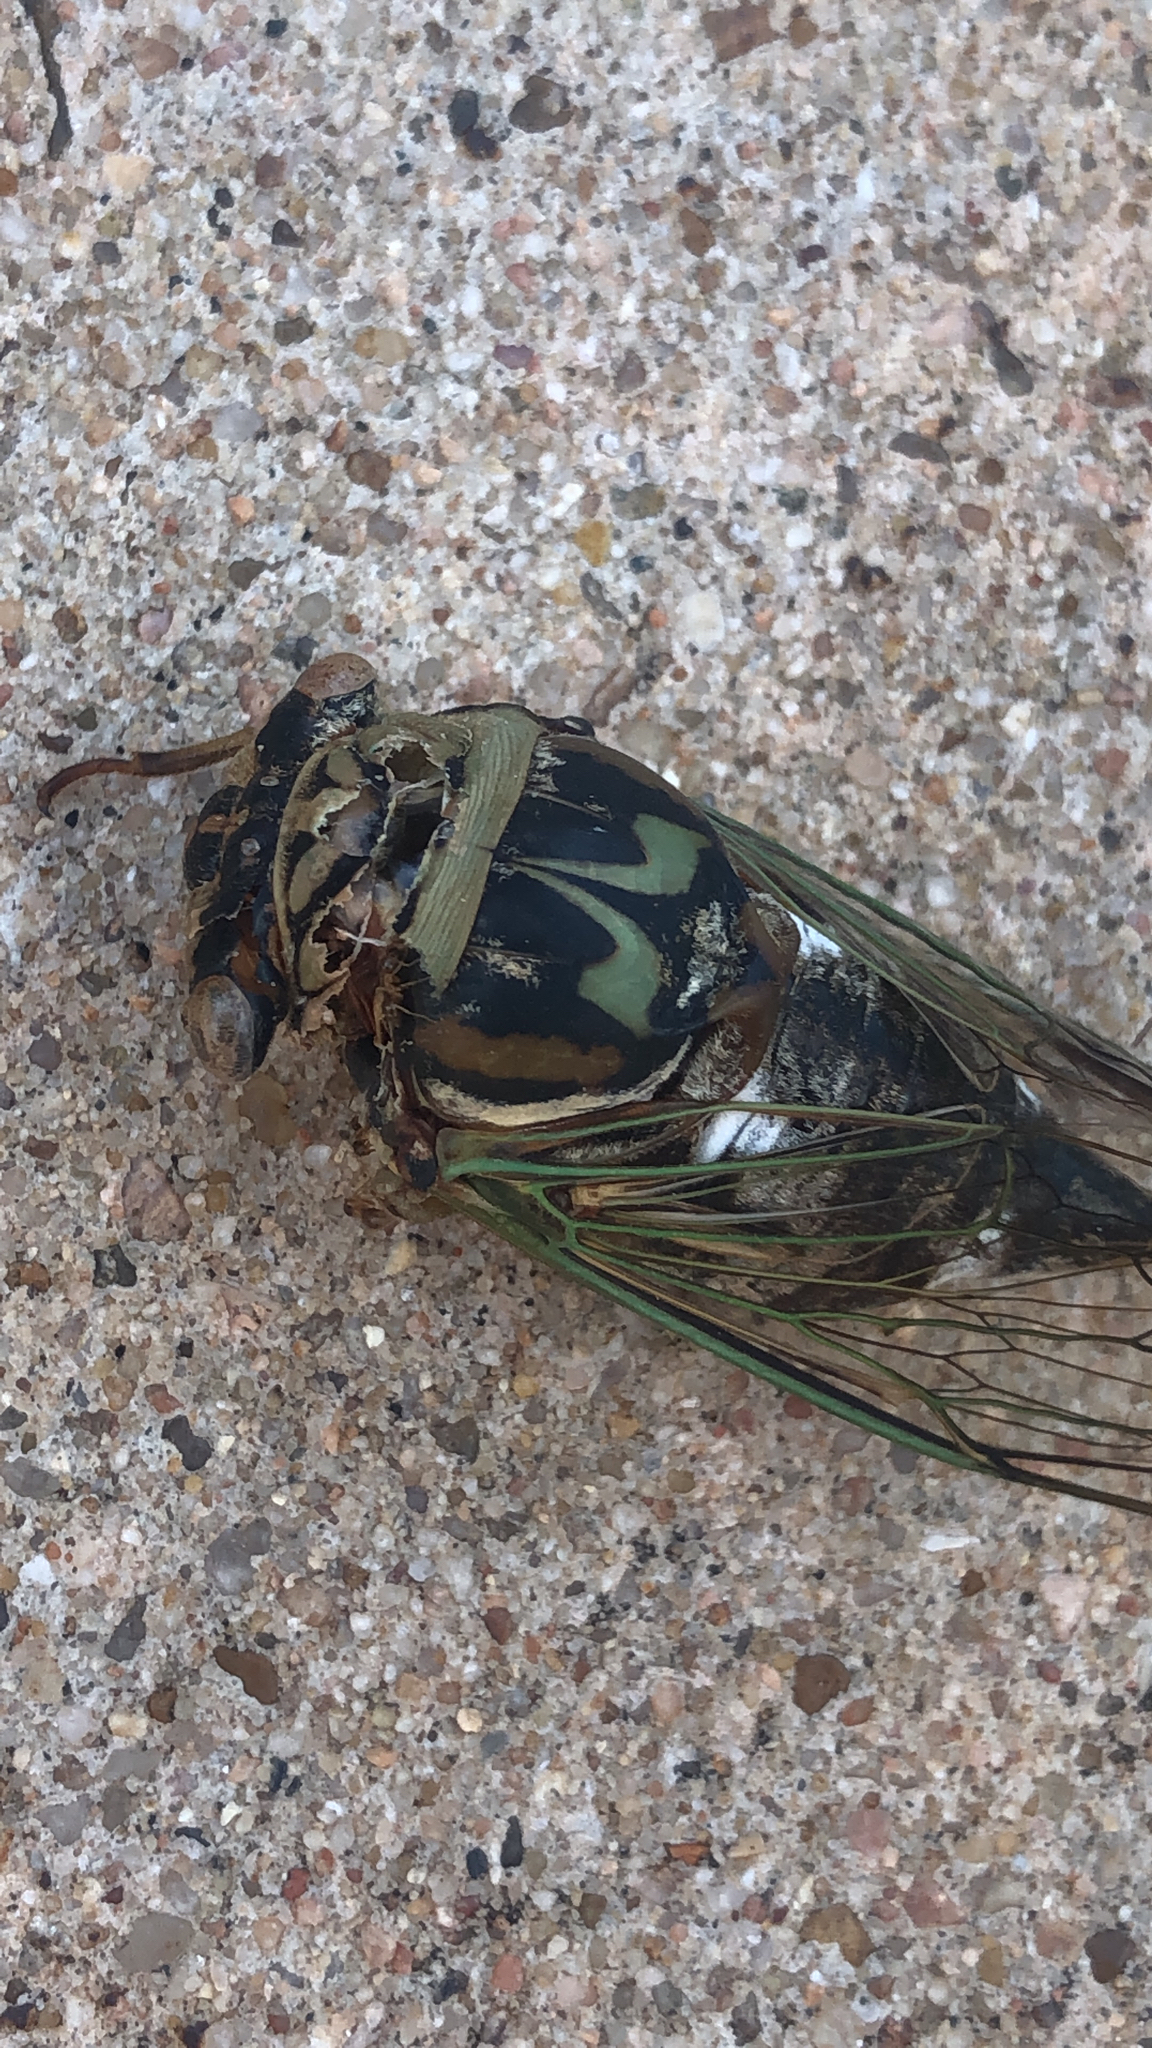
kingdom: Animalia
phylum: Arthropoda
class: Insecta
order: Hemiptera
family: Cicadidae
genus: Megatibicen
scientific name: Megatibicen resh
